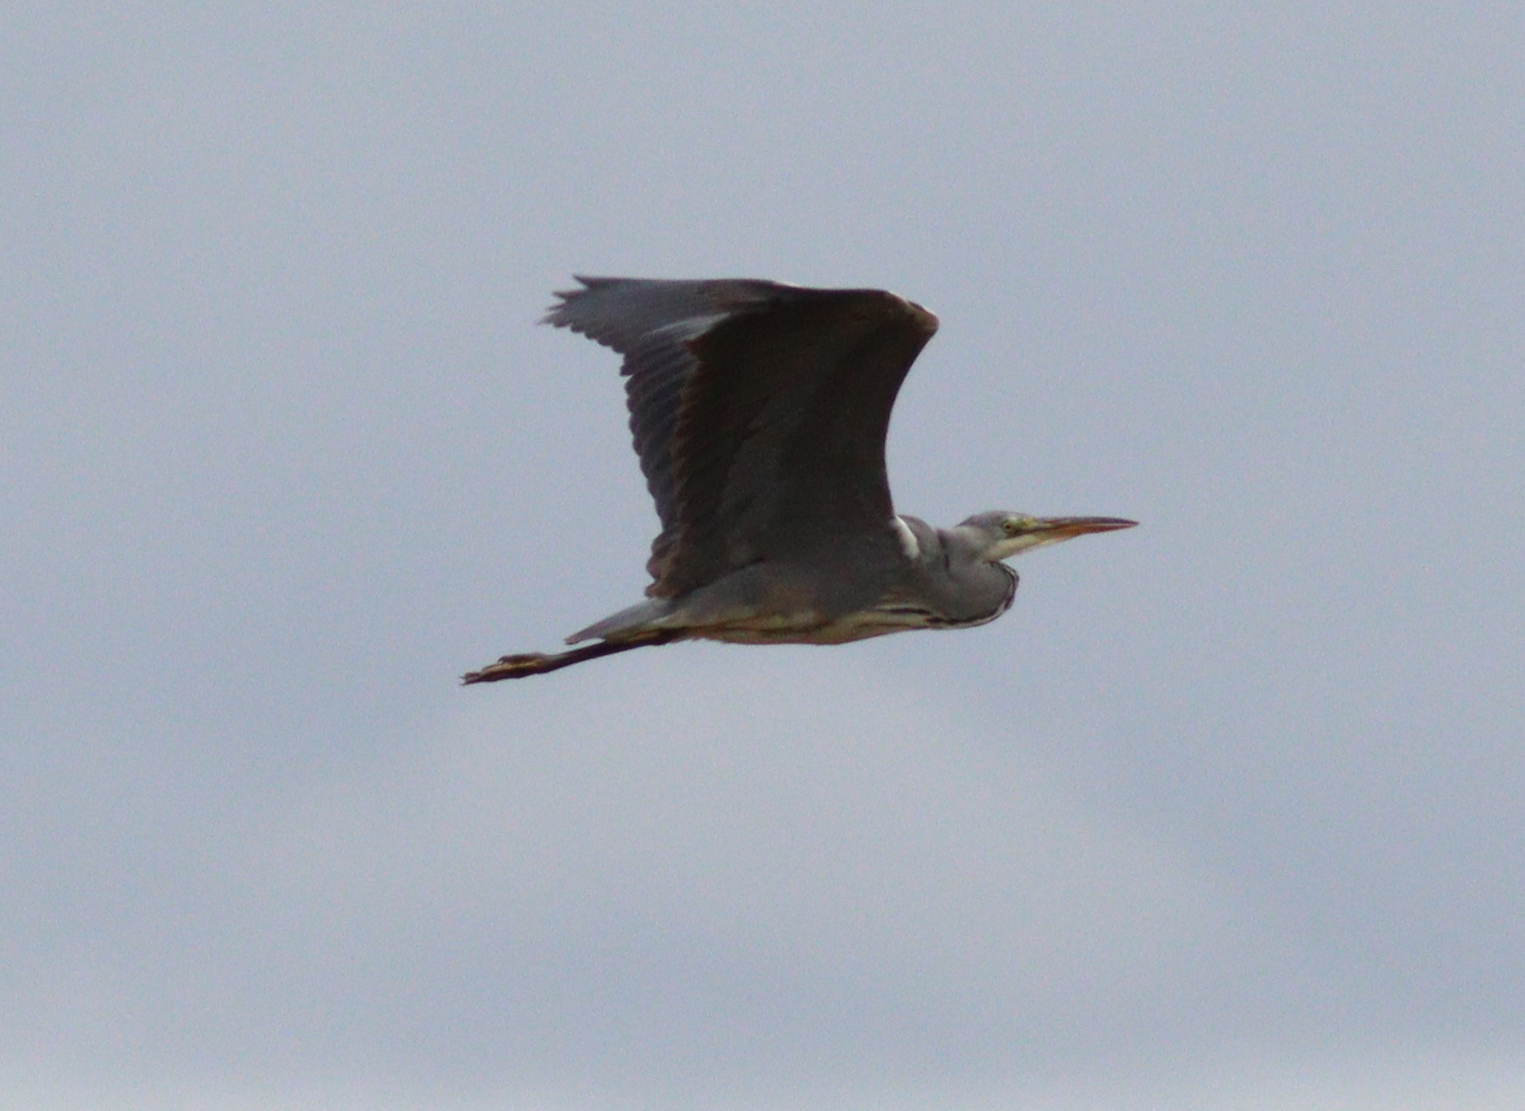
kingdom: Animalia
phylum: Chordata
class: Aves
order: Pelecaniformes
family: Ardeidae
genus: Ardea
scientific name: Ardea cinerea
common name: Grey heron
